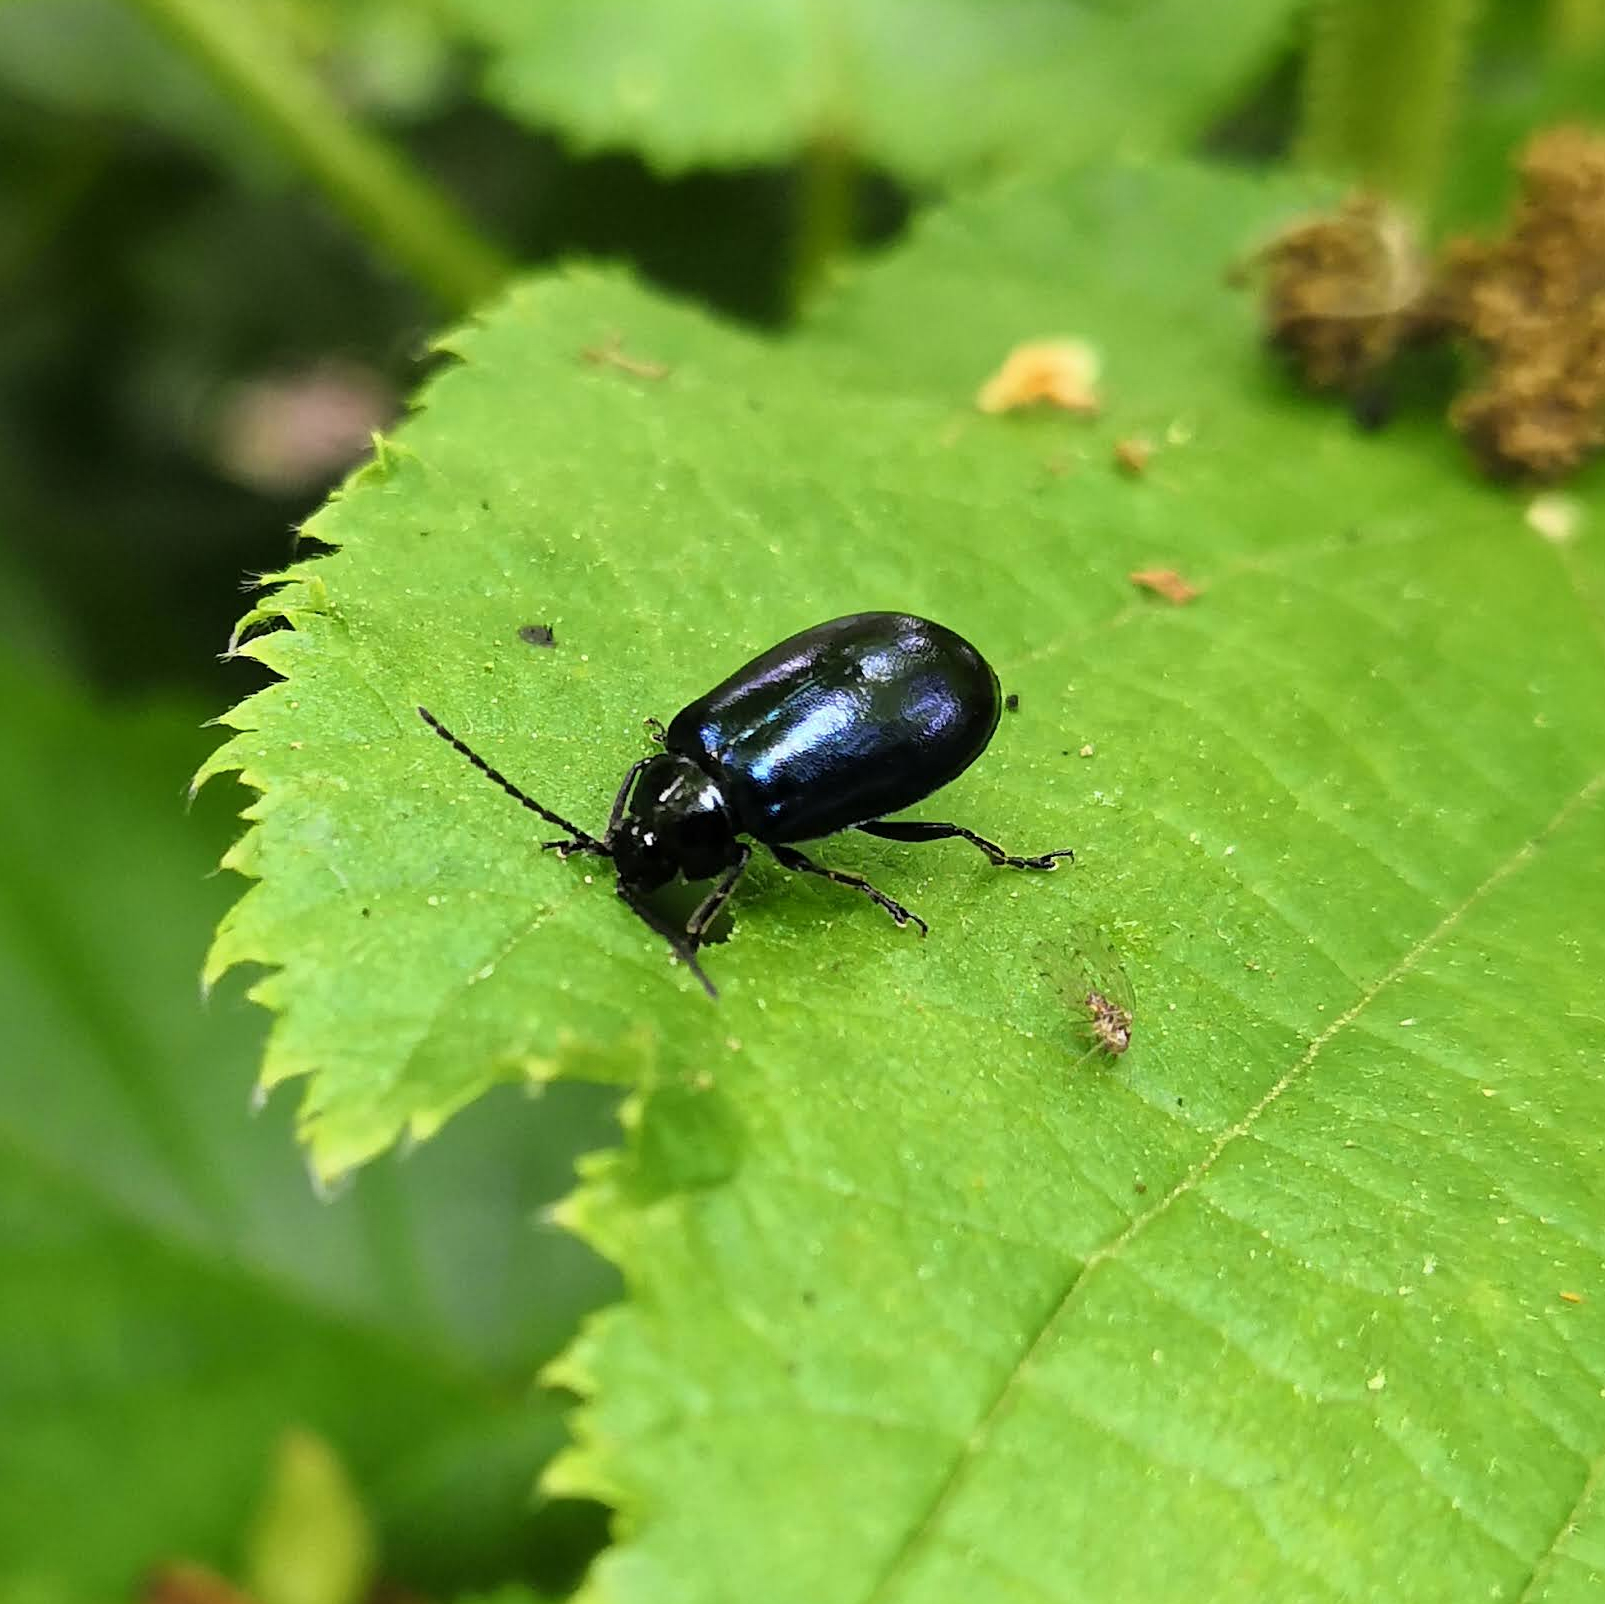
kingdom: Animalia
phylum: Arthropoda
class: Insecta
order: Coleoptera
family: Chrysomelidae
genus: Agelastica
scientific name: Agelastica alni
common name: Alder leaf beetle
